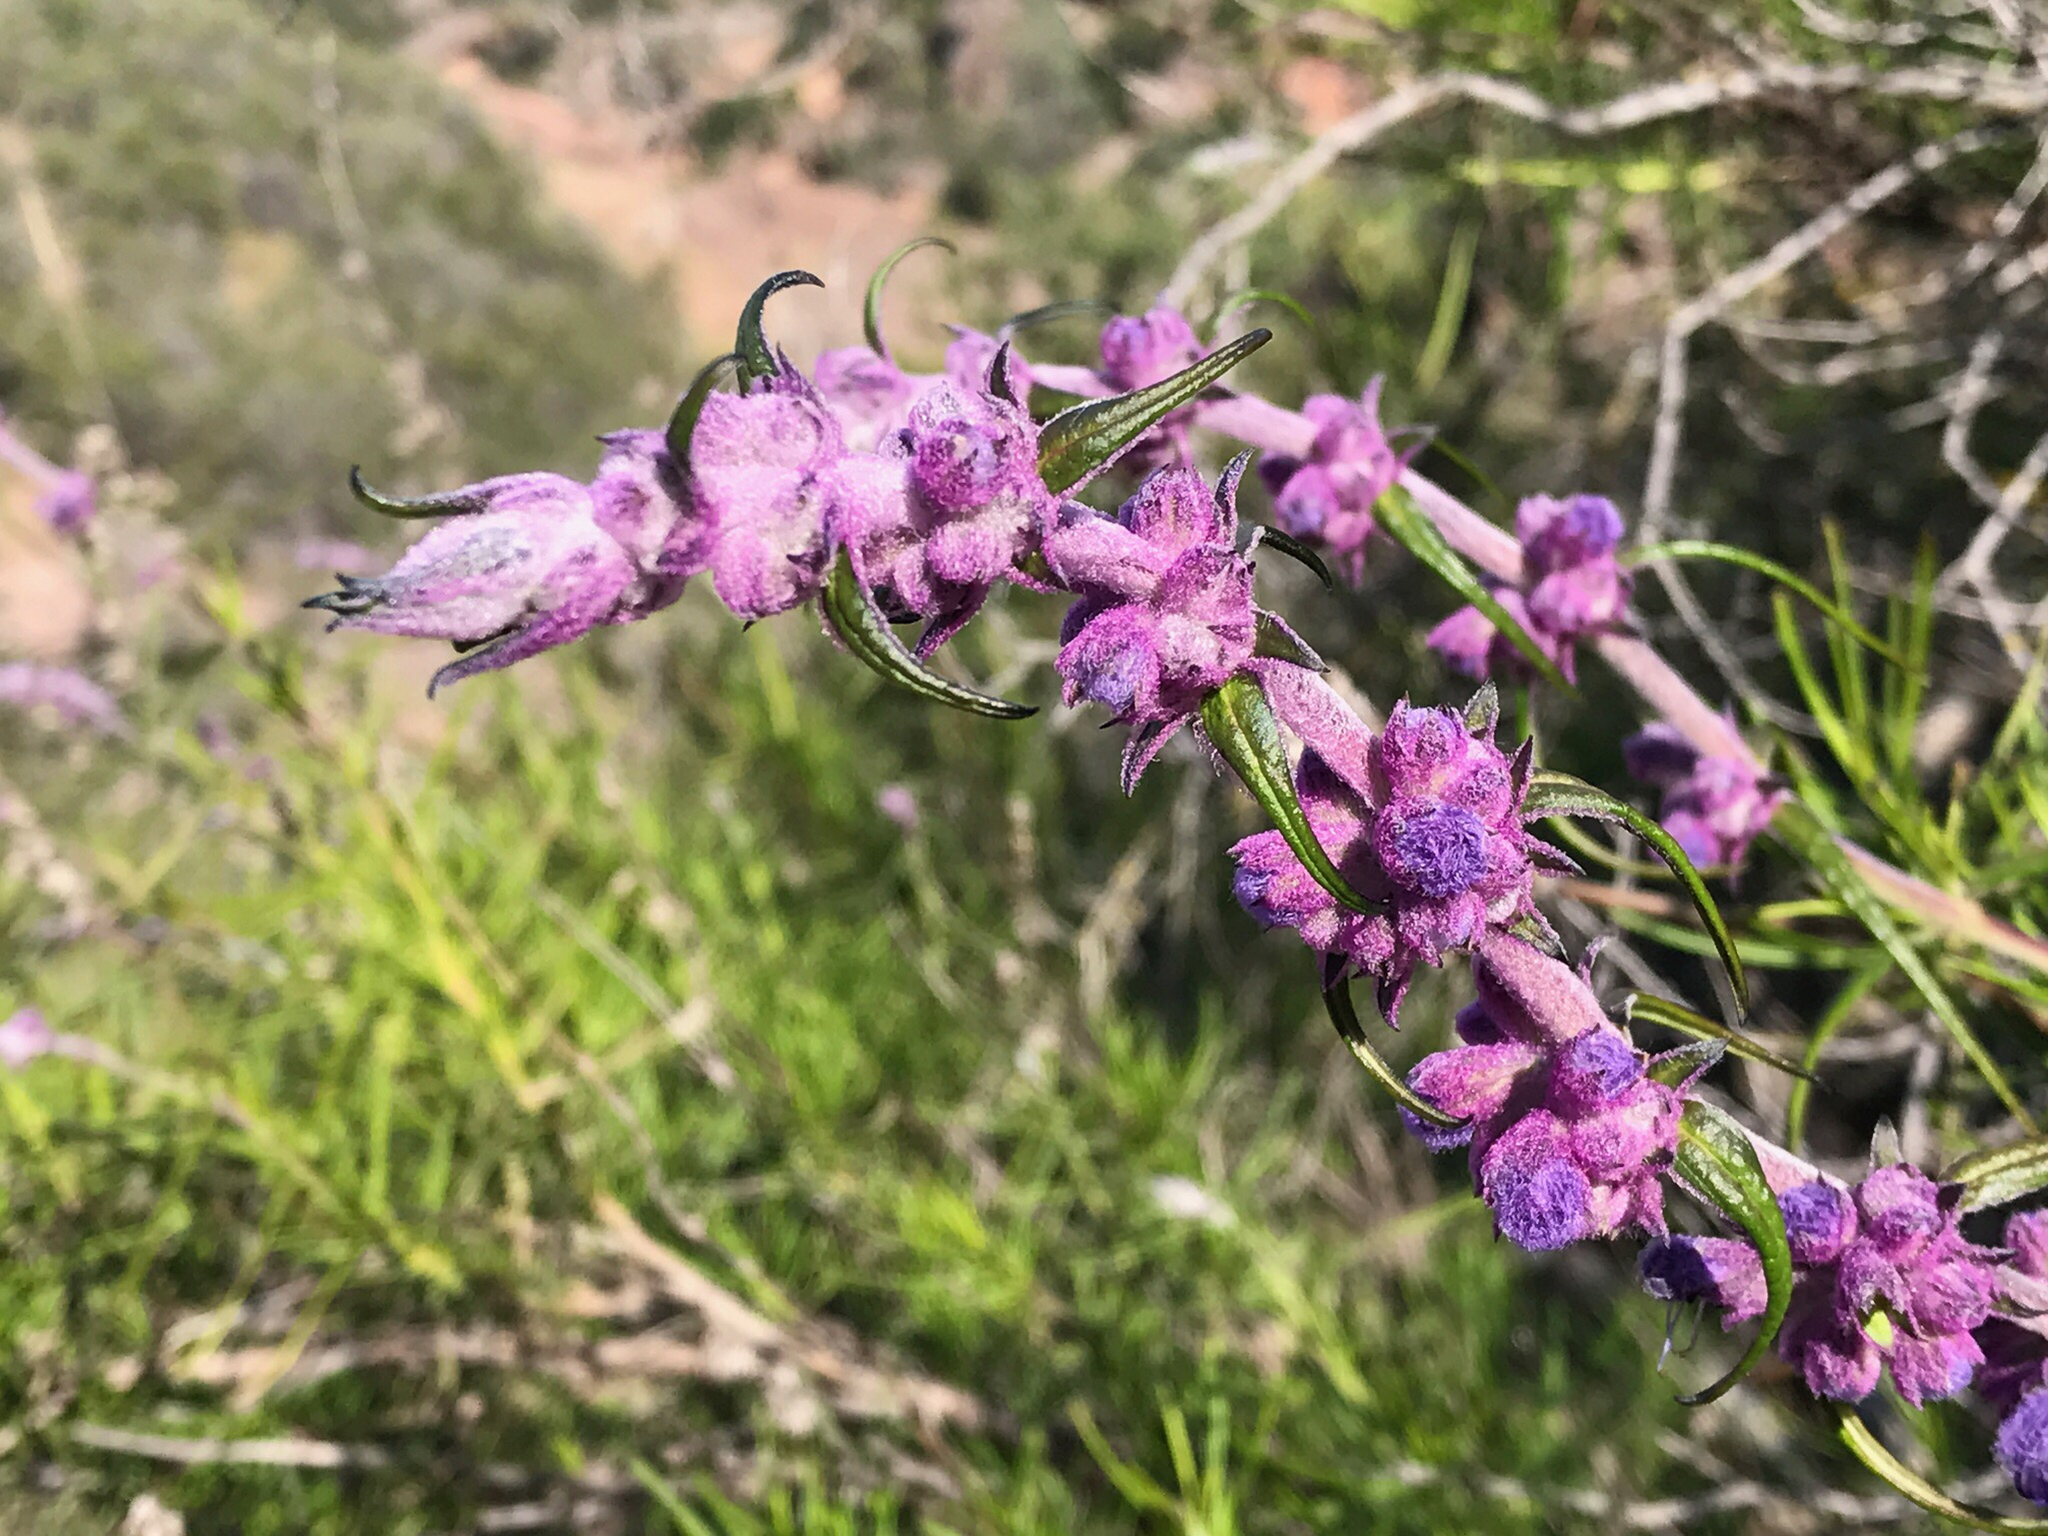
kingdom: Plantae
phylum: Tracheophyta
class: Magnoliopsida
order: Lamiales
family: Lamiaceae
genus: Trichostema
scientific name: Trichostema lanatum
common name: Woolly bluecurls
